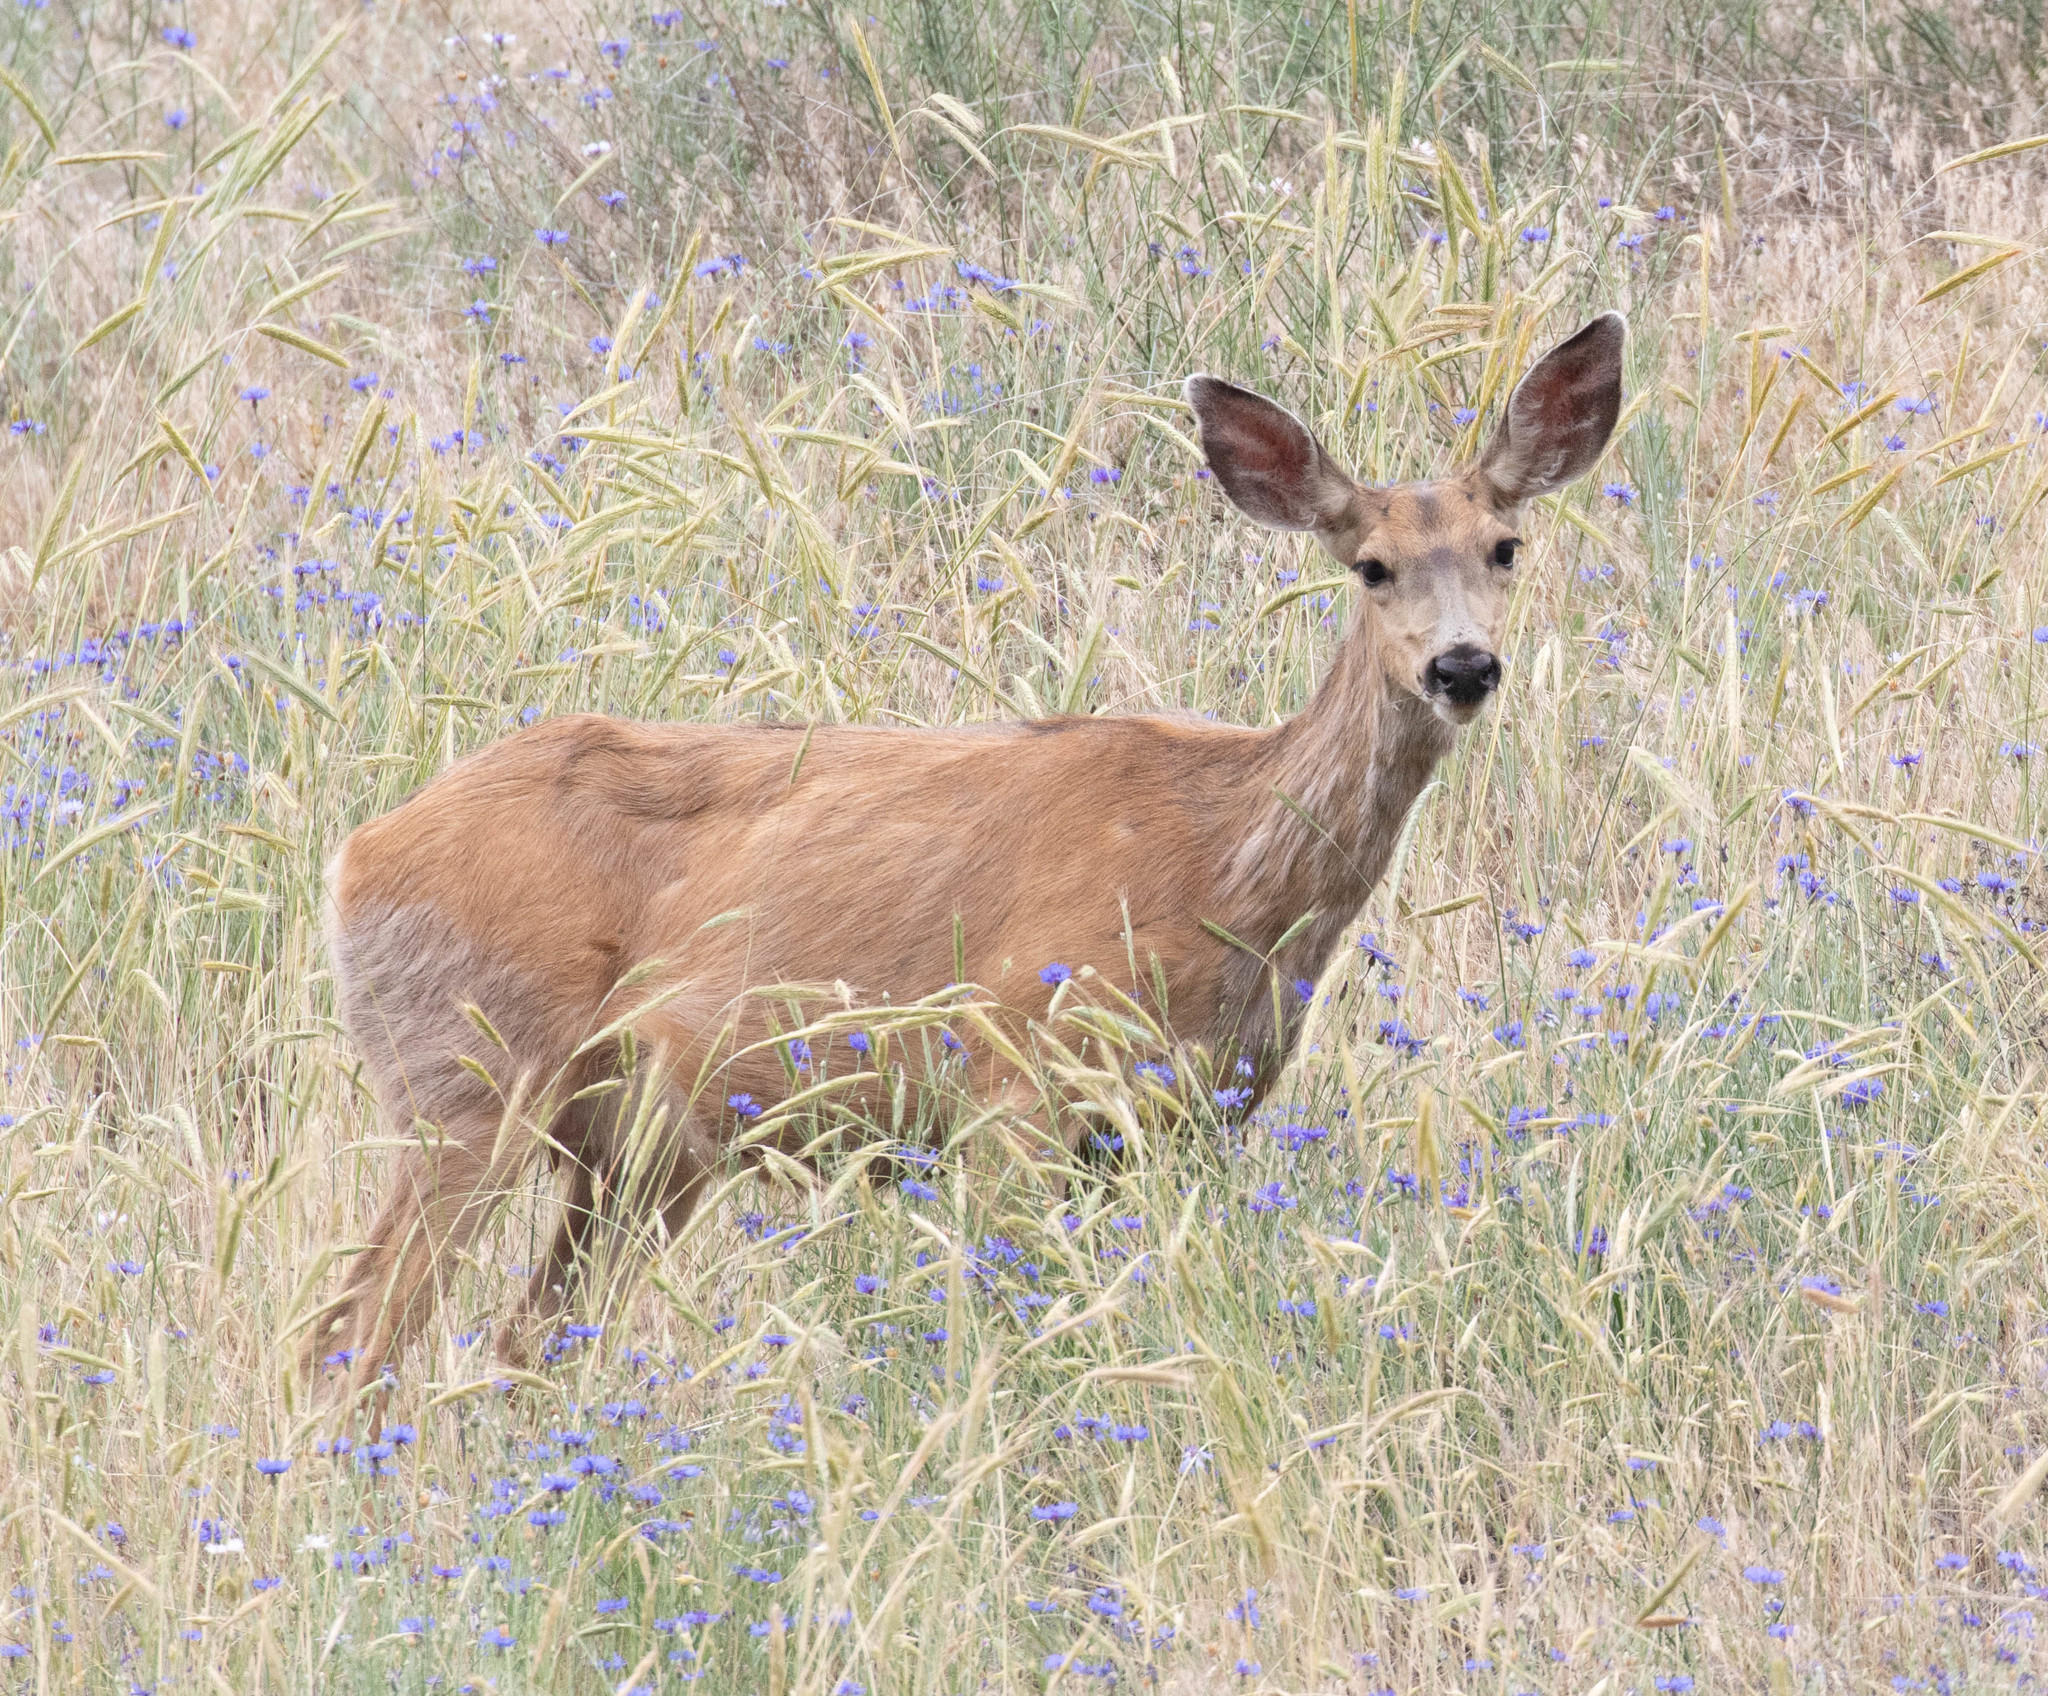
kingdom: Animalia
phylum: Chordata
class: Mammalia
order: Artiodactyla
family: Cervidae
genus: Odocoileus
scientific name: Odocoileus hemionus
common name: Mule deer
